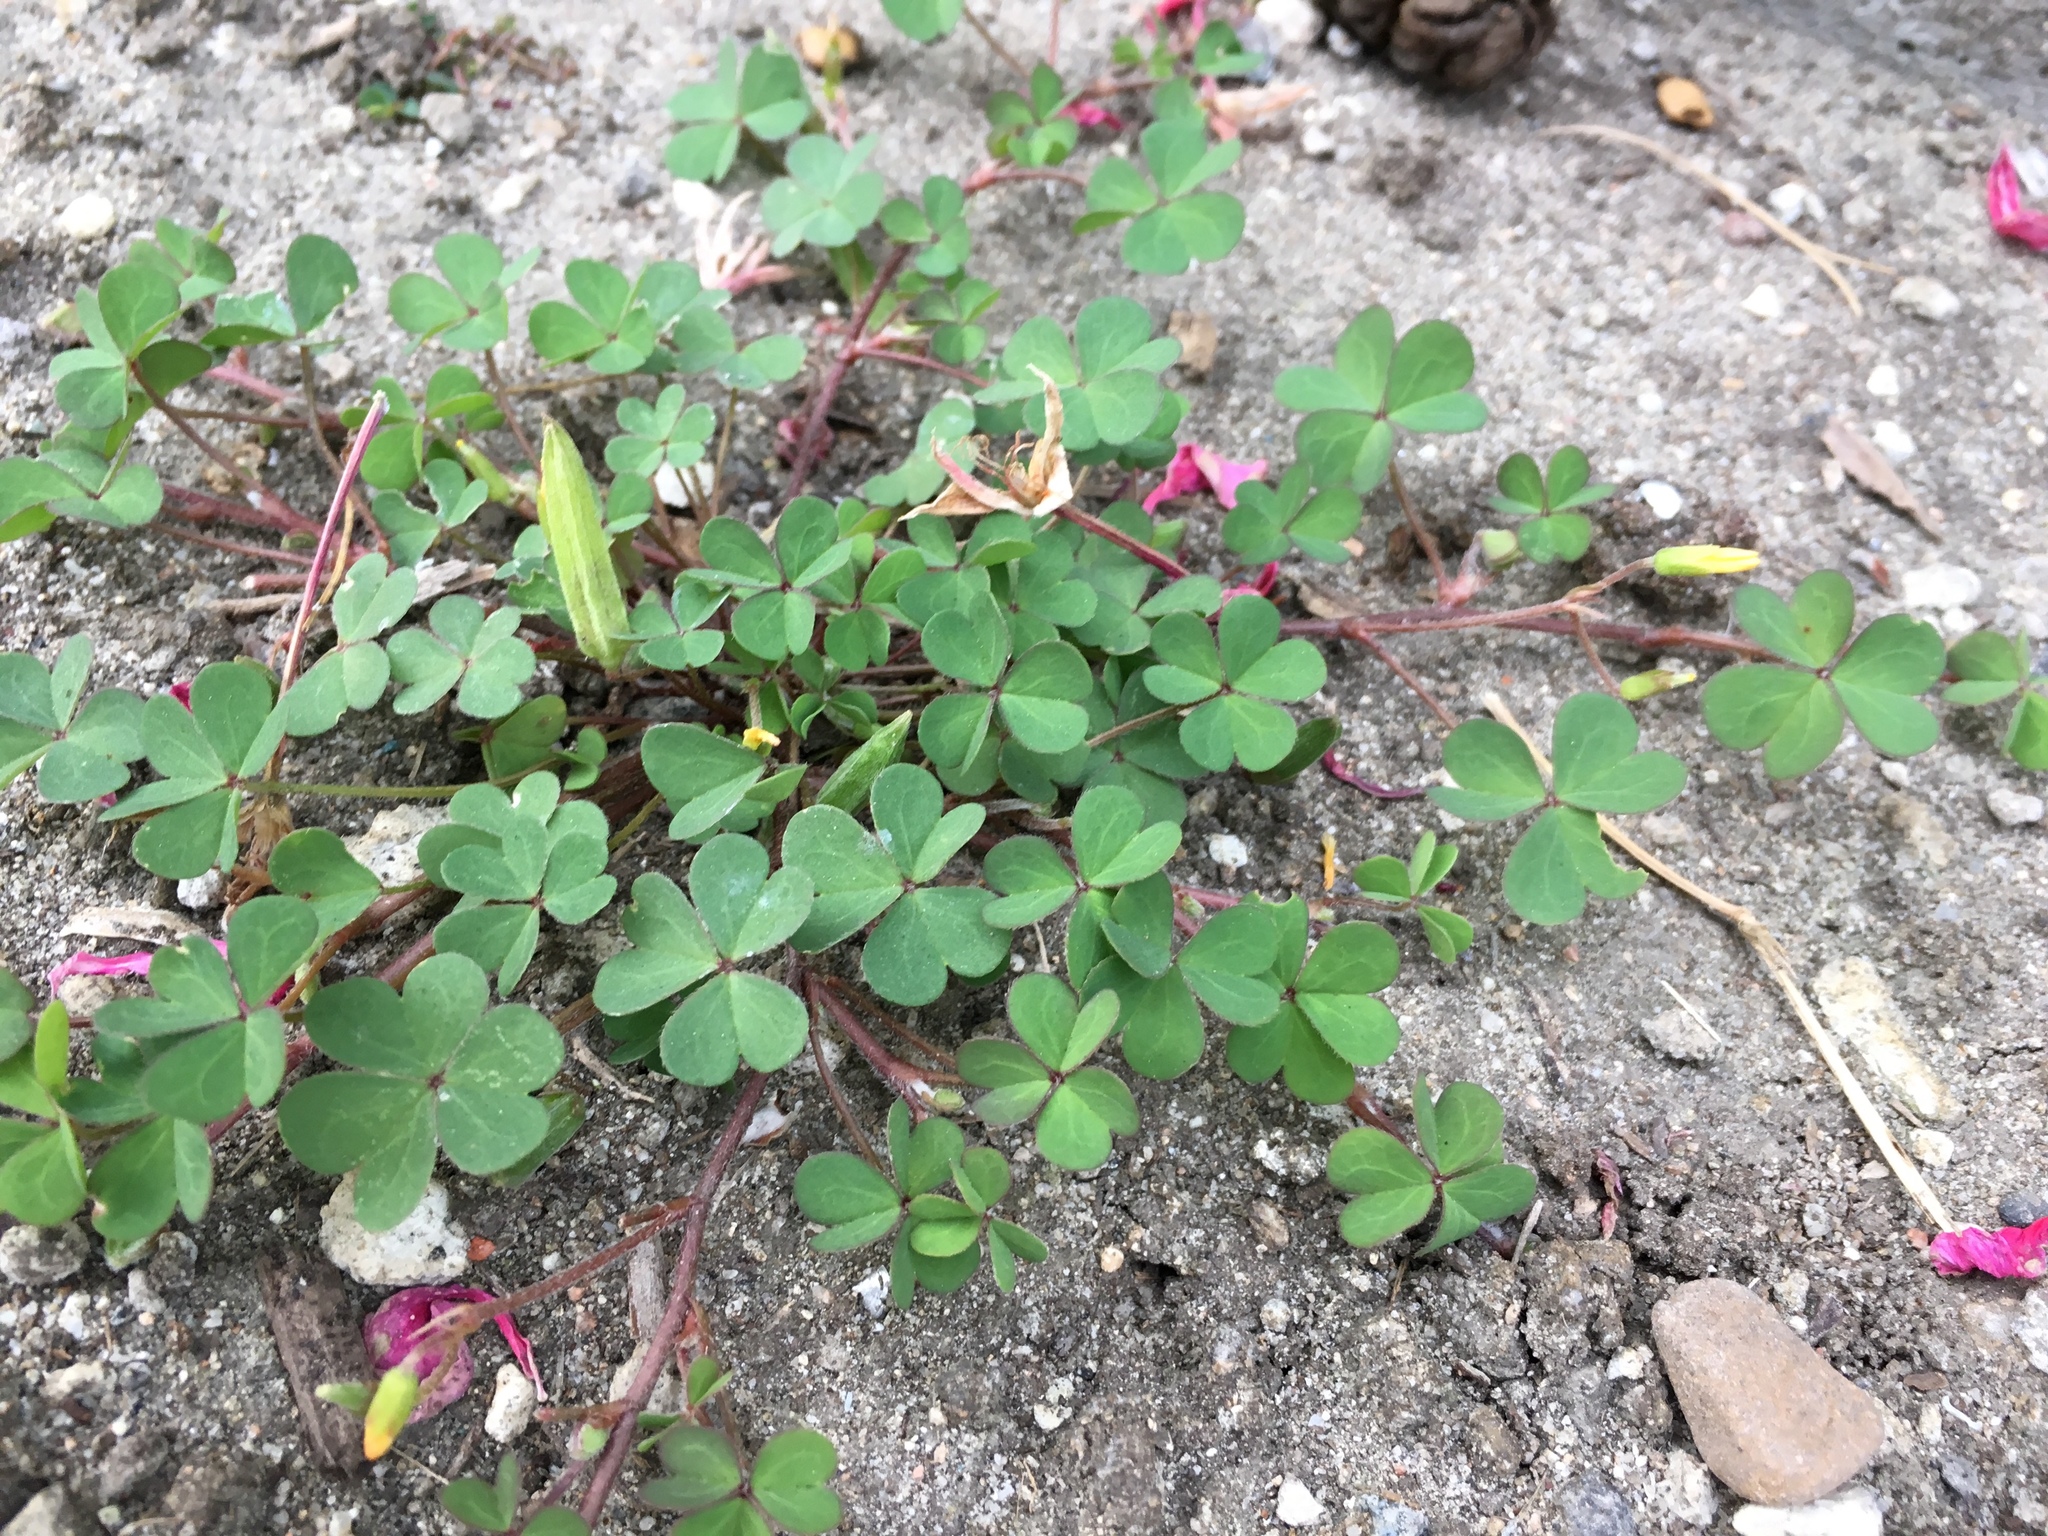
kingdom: Plantae
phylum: Tracheophyta
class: Magnoliopsida
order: Oxalidales
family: Oxalidaceae
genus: Oxalis
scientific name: Oxalis corniculata
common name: Procumbent yellow-sorrel
